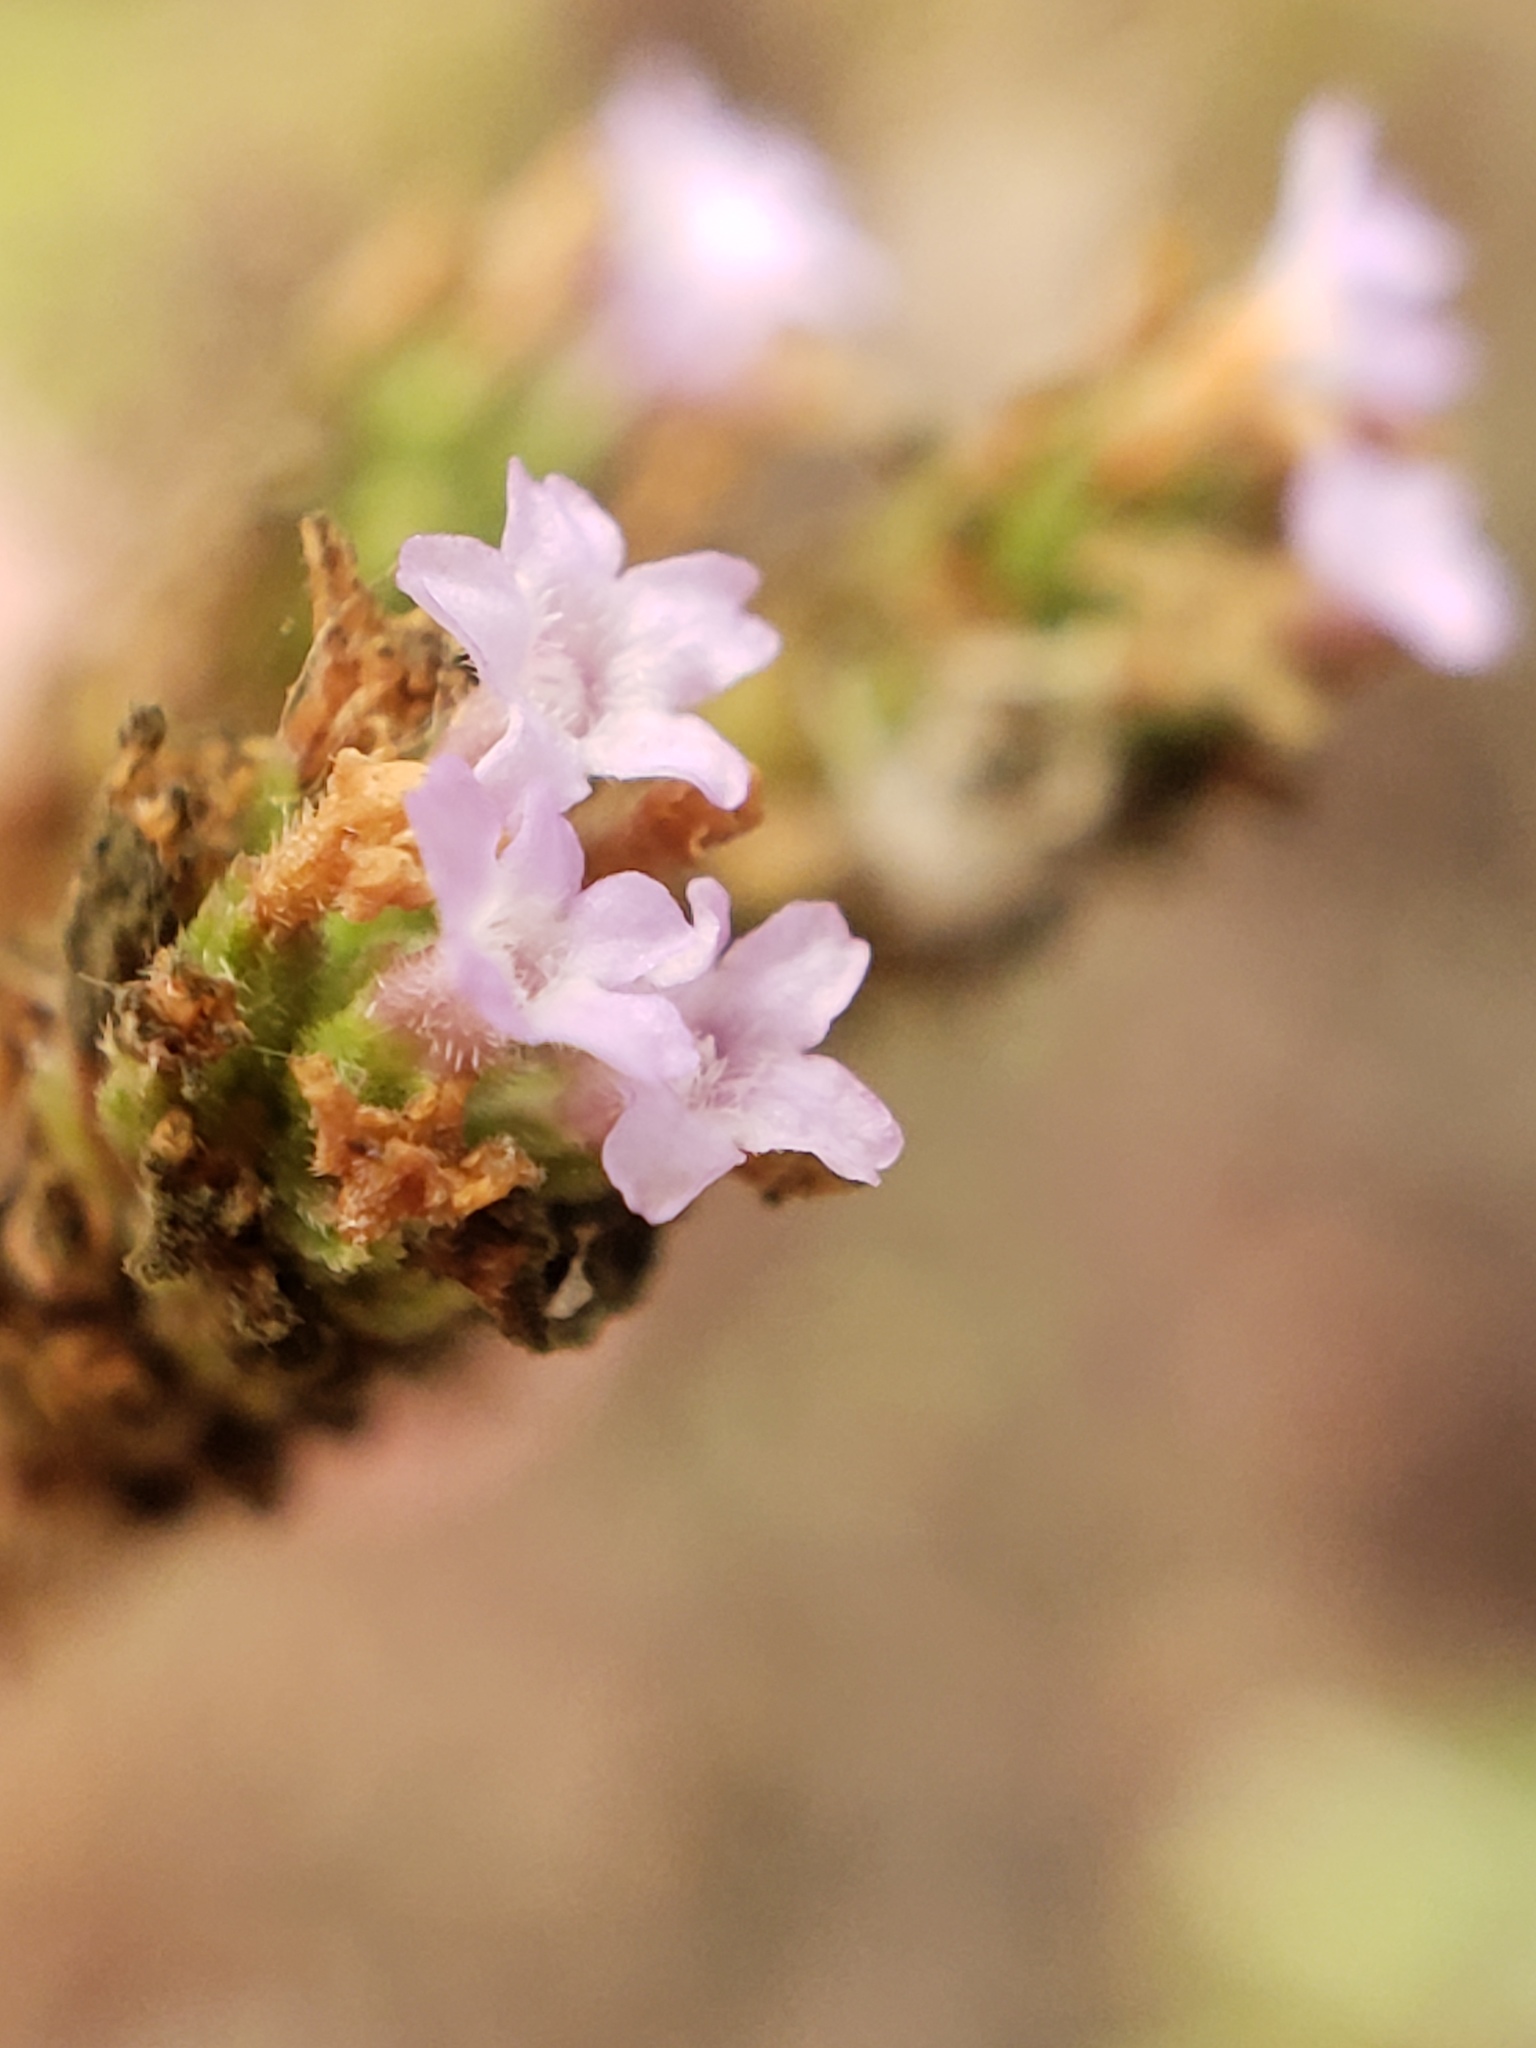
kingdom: Plantae
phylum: Tracheophyta
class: Magnoliopsida
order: Lamiales
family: Verbenaceae
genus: Verbena
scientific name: Verbena brasiliensis
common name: Brazilian vervain
